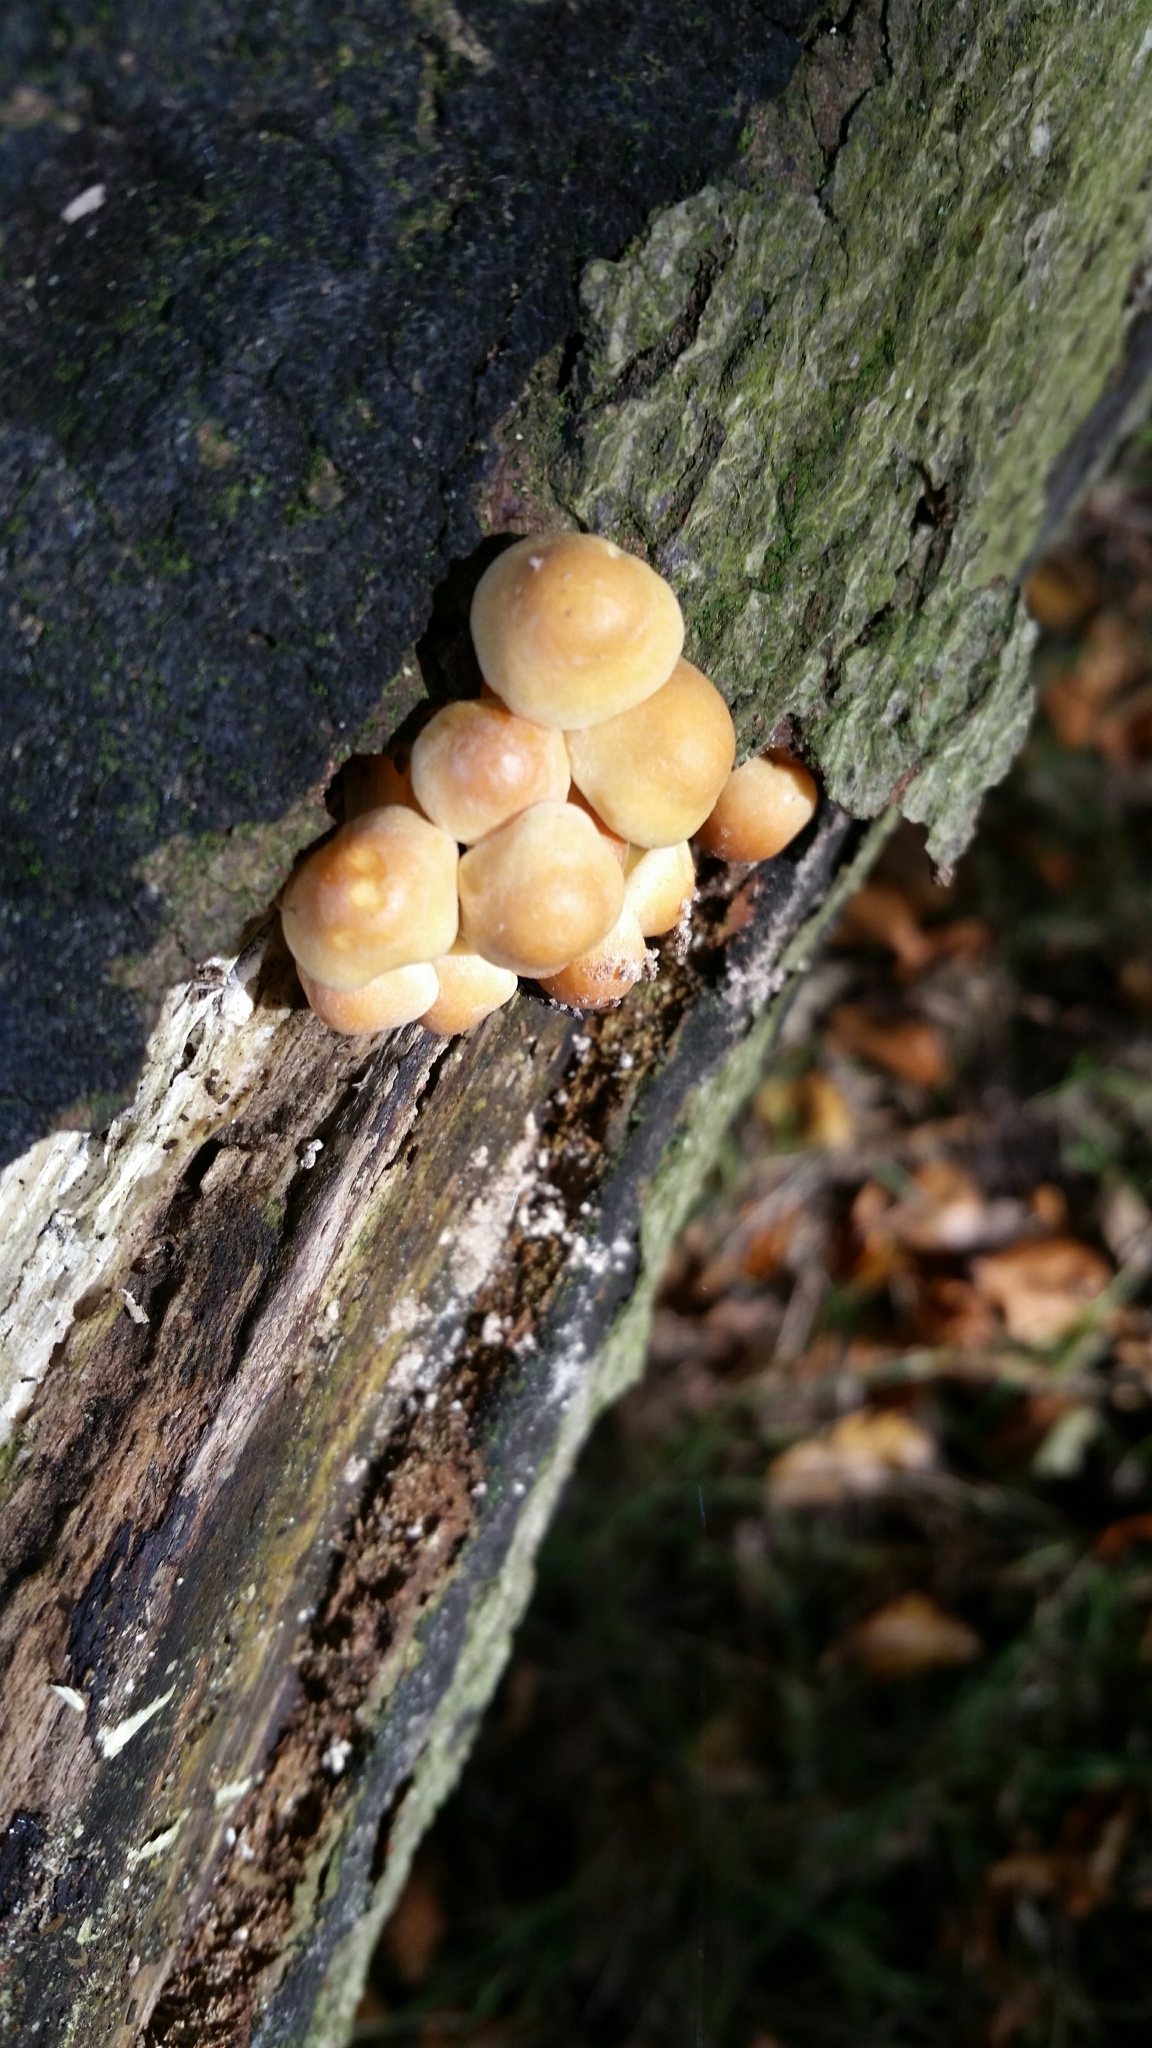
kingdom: Fungi
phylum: Basidiomycota
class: Agaricomycetes
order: Agaricales
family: Strophariaceae
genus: Hypholoma
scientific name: Hypholoma fasciculare
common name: Sulphur tuft
